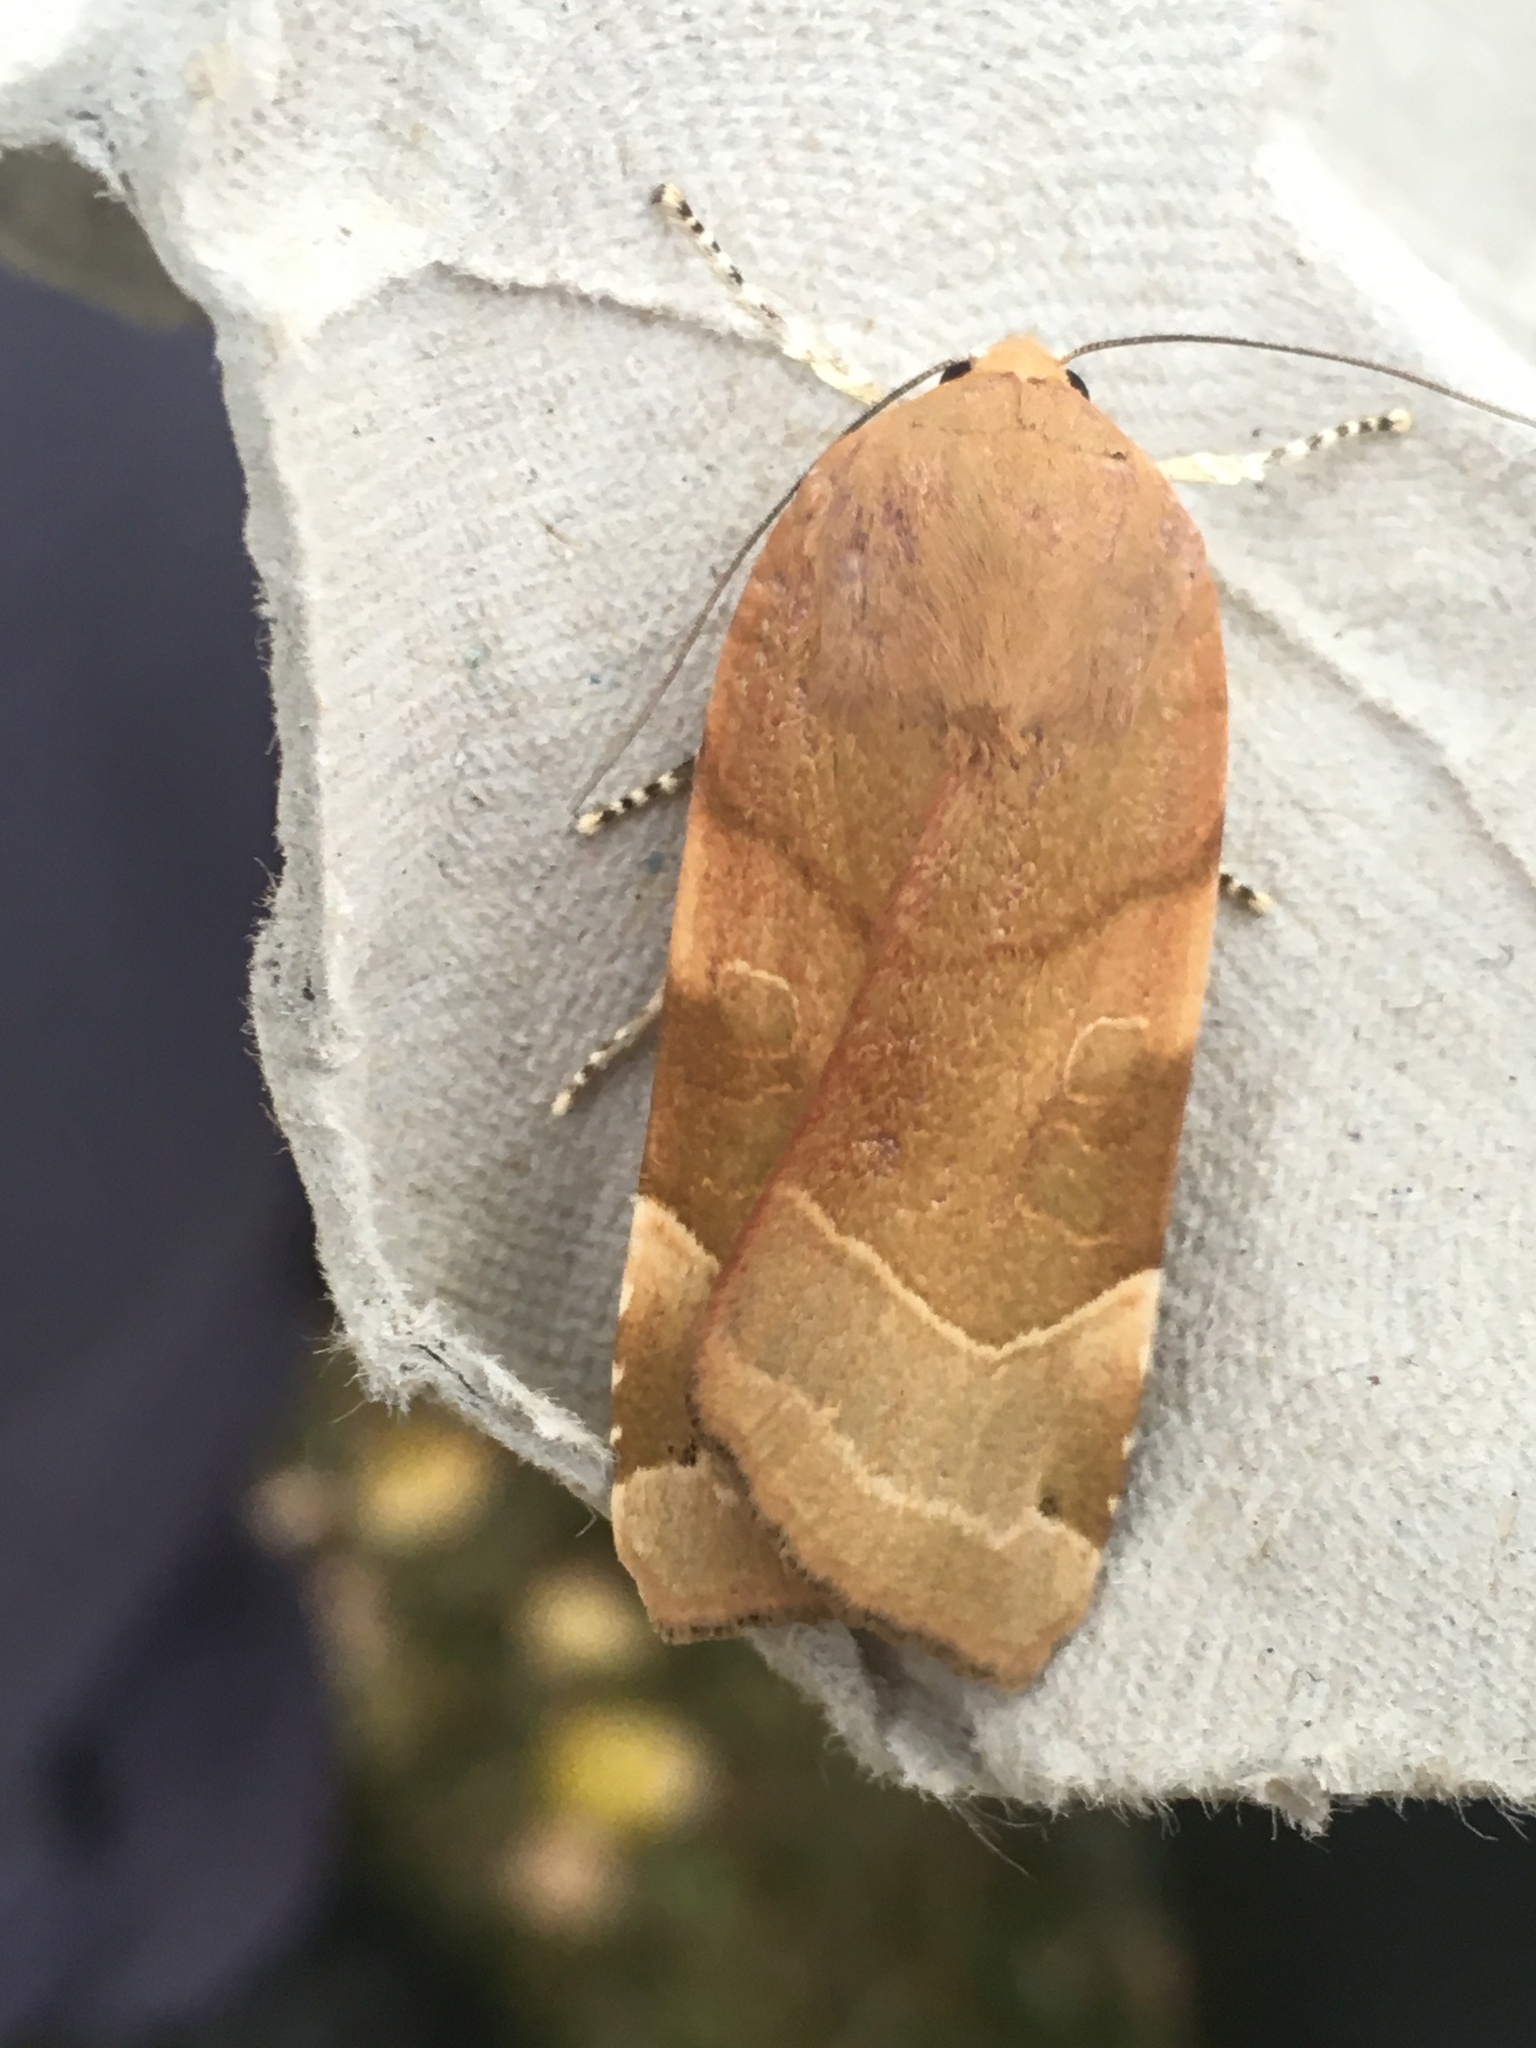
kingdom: Animalia
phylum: Arthropoda
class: Insecta
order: Lepidoptera
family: Noctuidae
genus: Noctua
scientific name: Noctua fimbriata
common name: Broad-bordered yellow underwing
